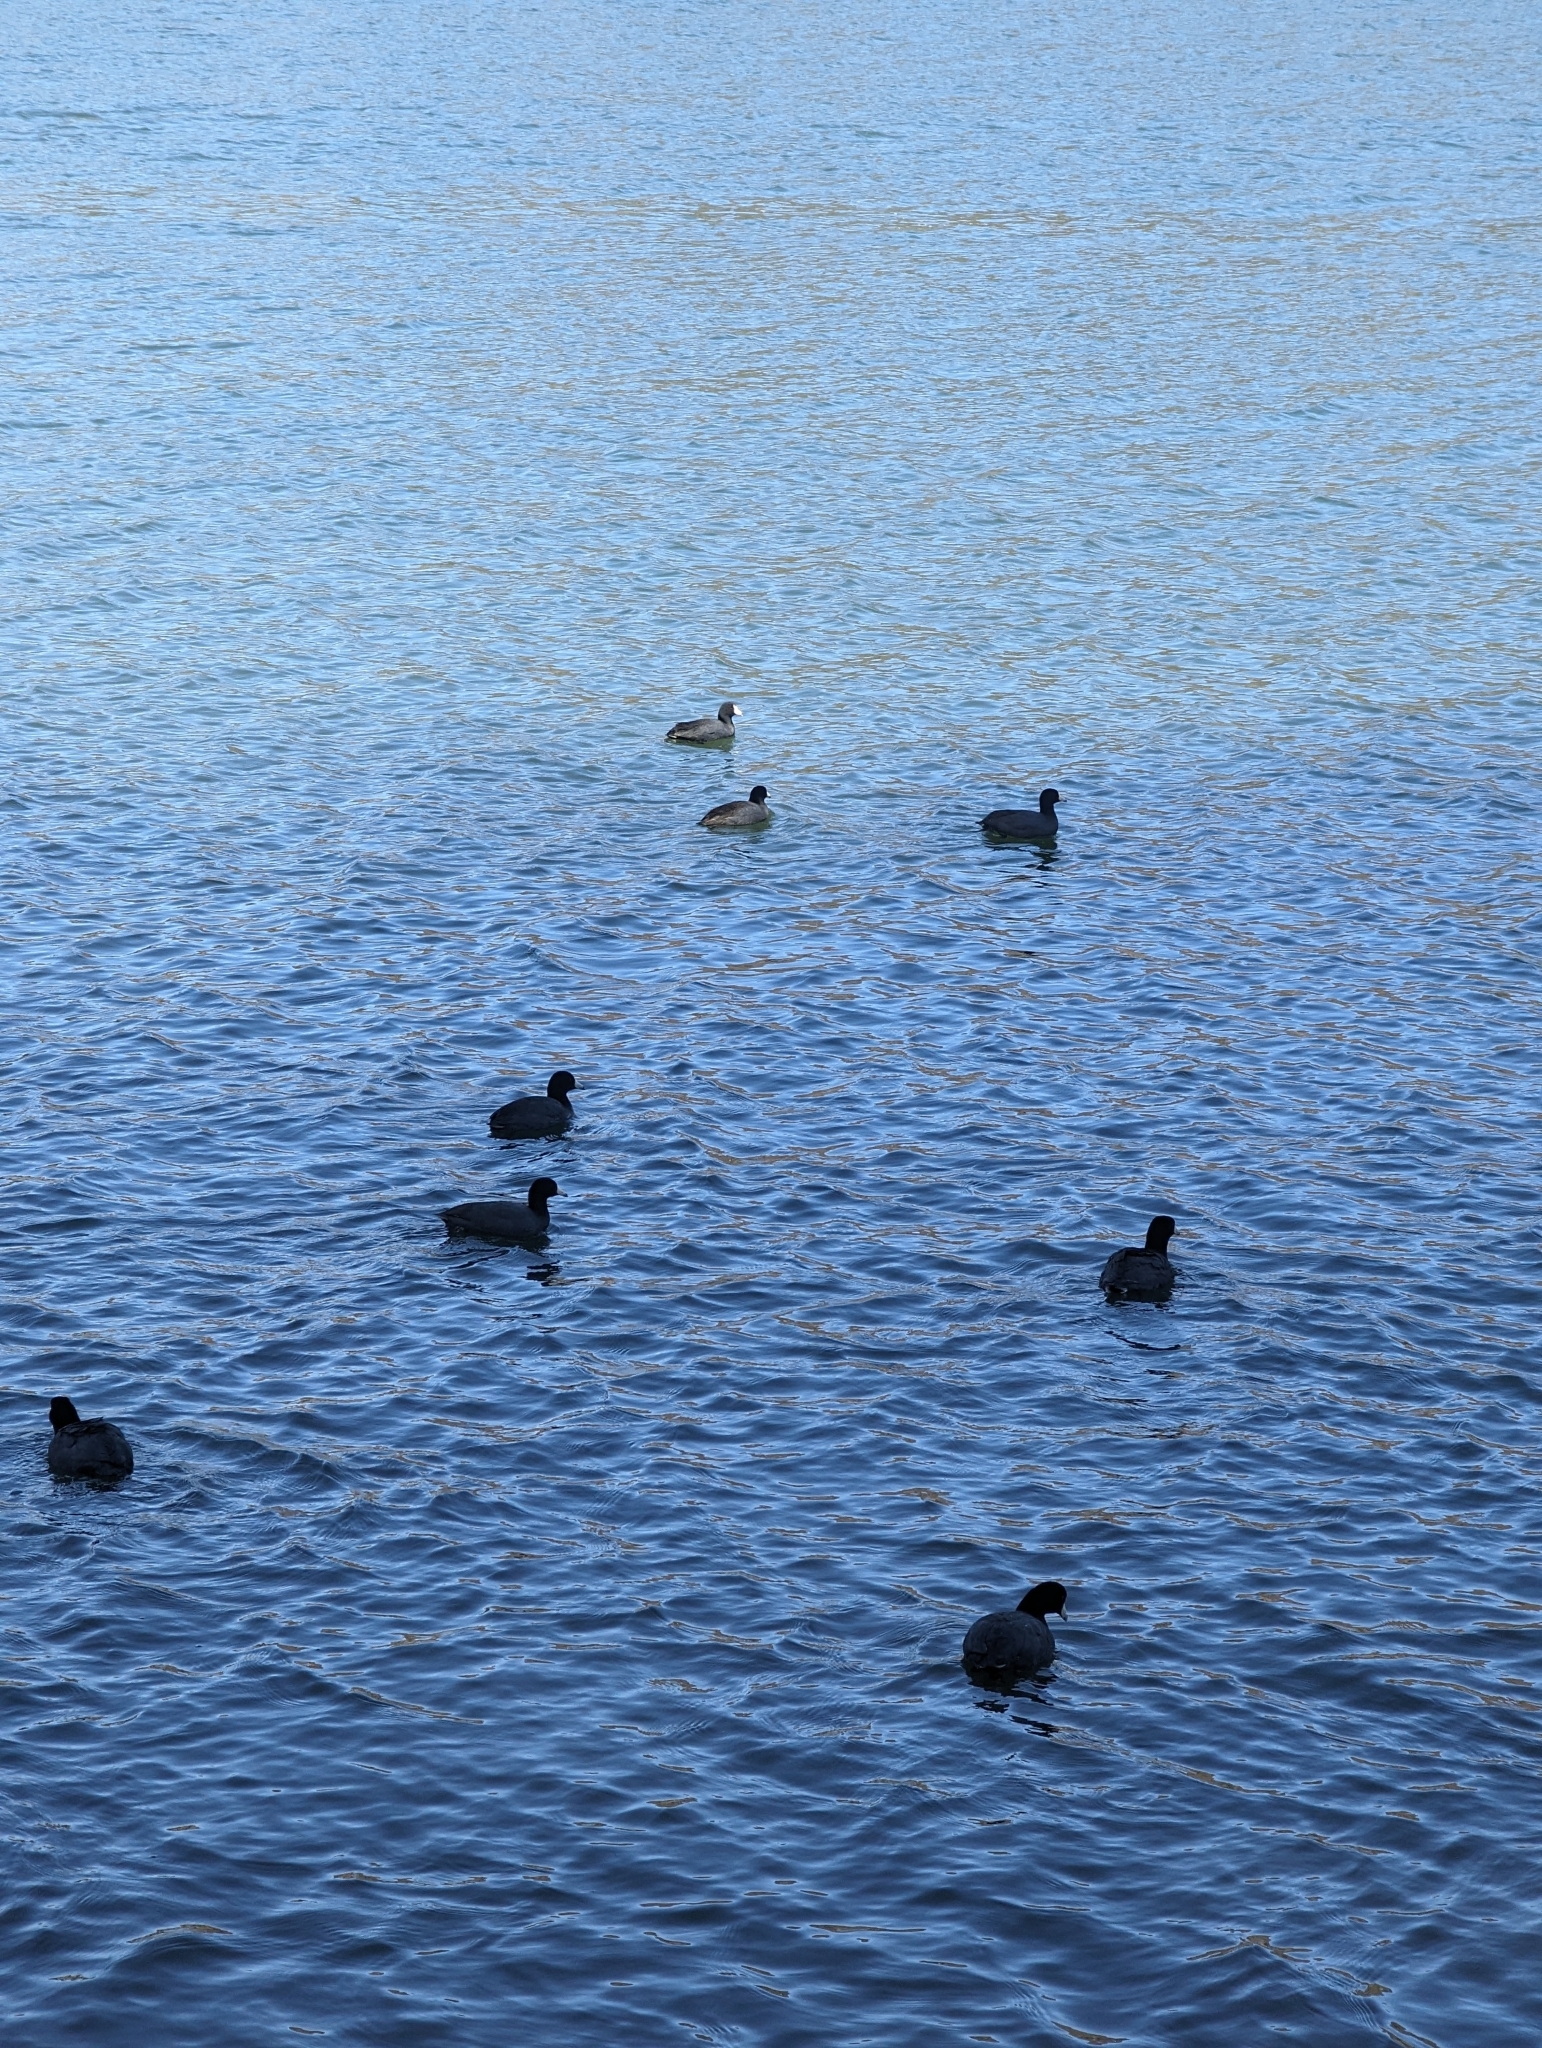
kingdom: Animalia
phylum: Chordata
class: Aves
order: Gruiformes
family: Rallidae
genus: Fulica
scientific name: Fulica americana
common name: American coot
